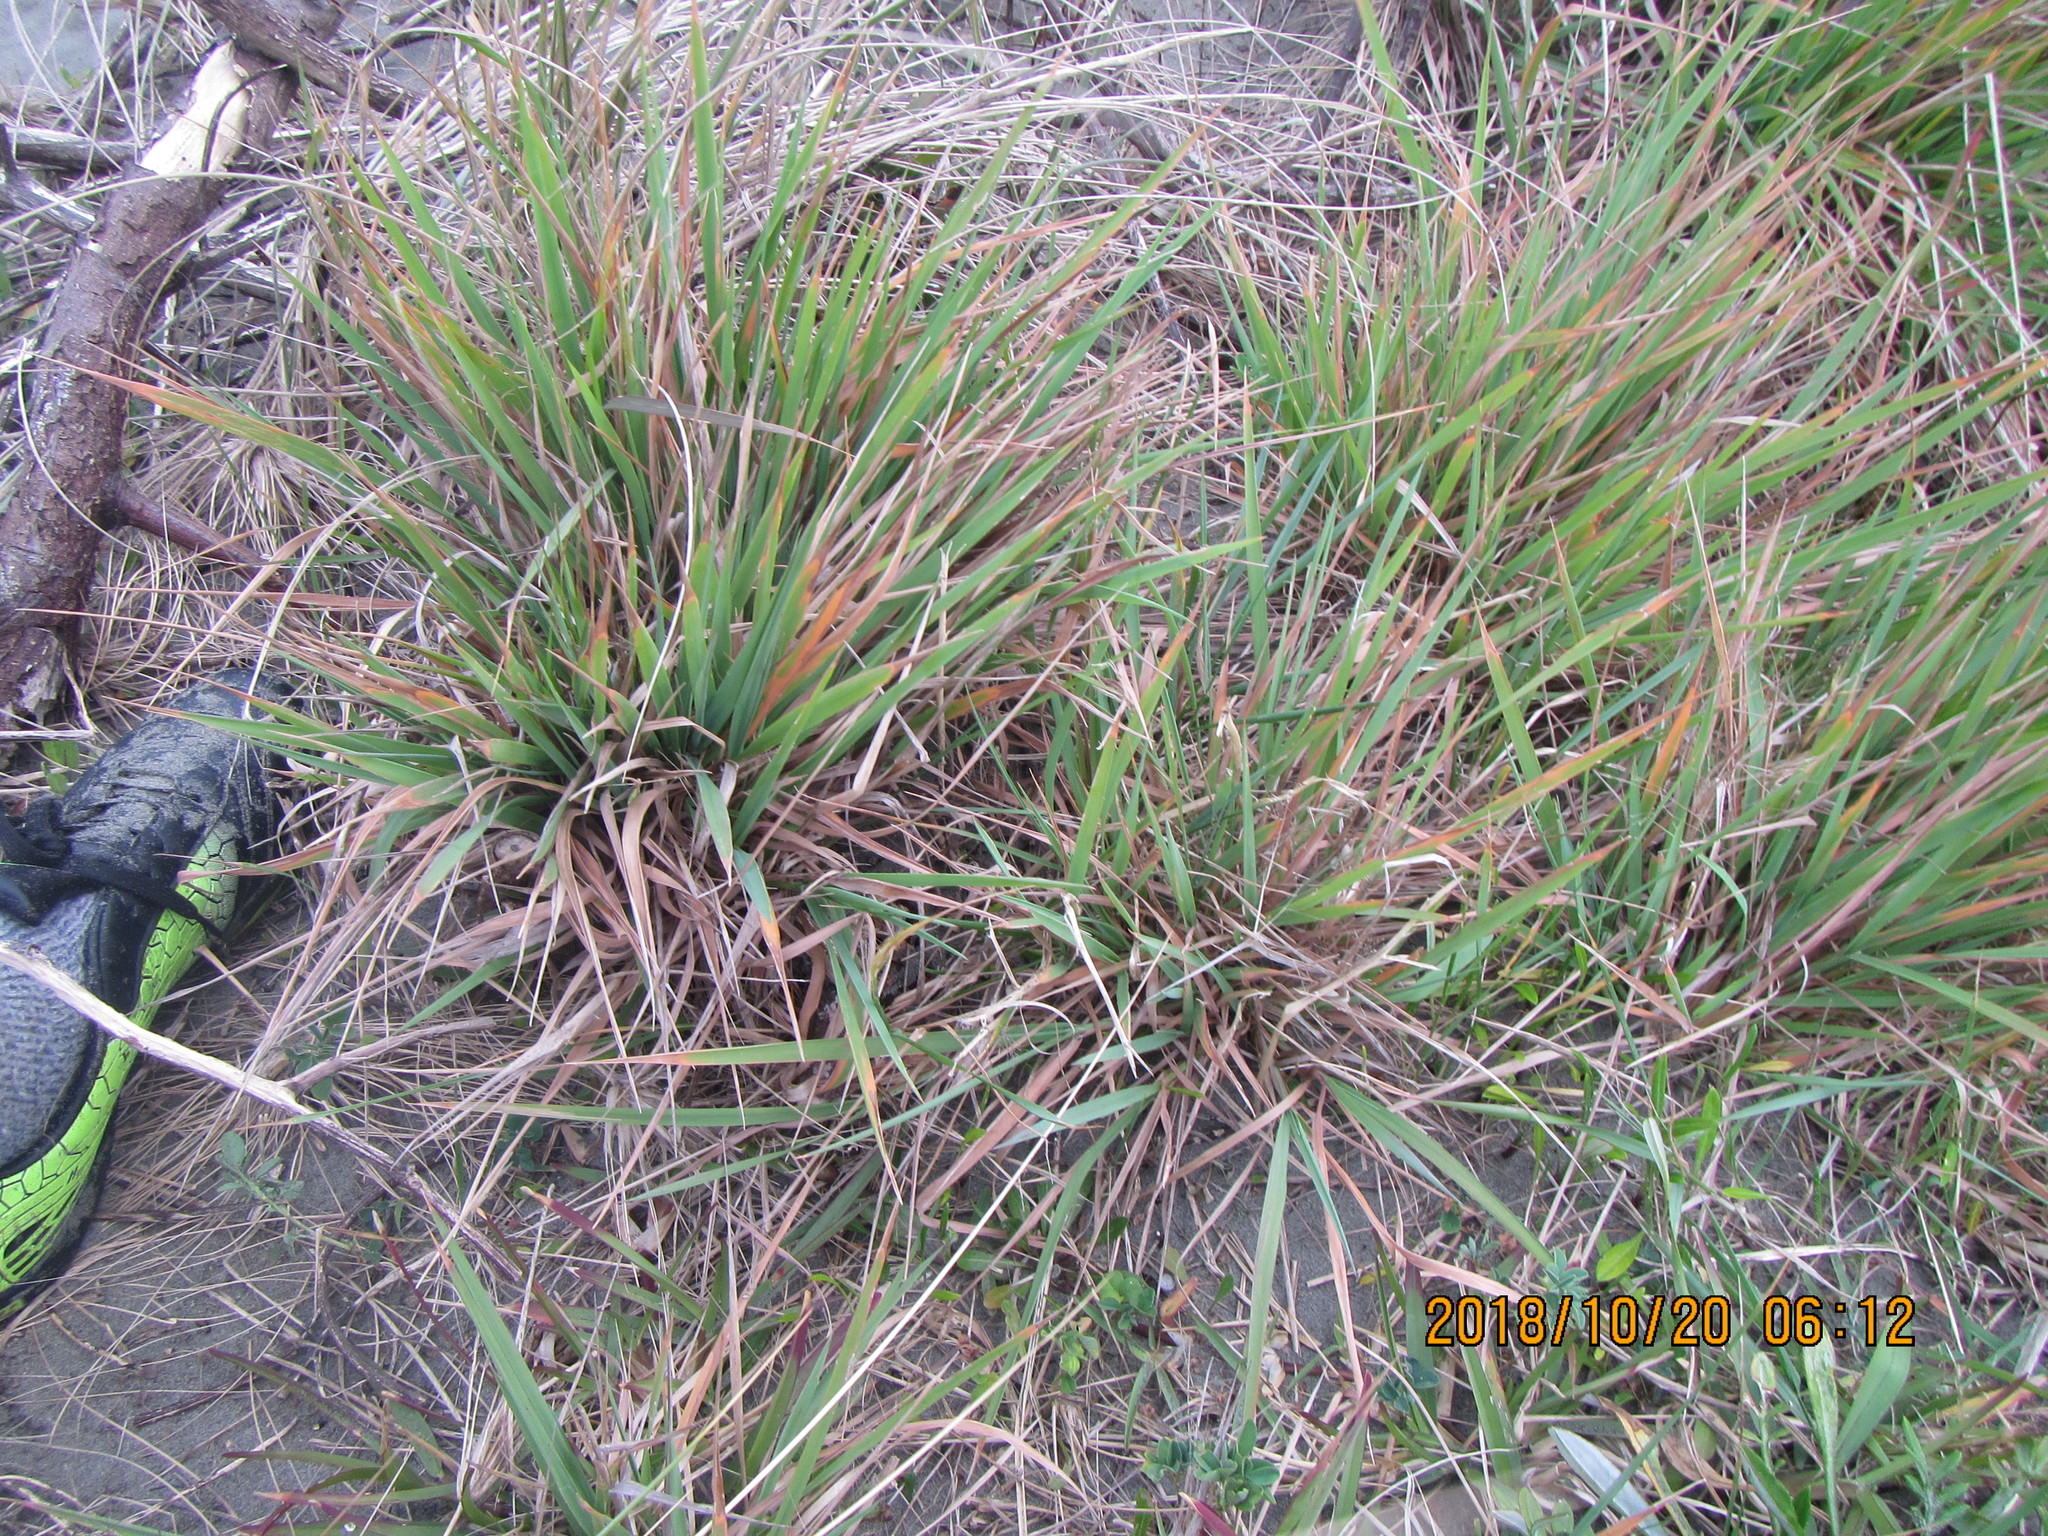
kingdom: Plantae
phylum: Tracheophyta
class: Liliopsida
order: Poales
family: Poaceae
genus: Lachnagrostis
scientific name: Lachnagrostis billardierei
